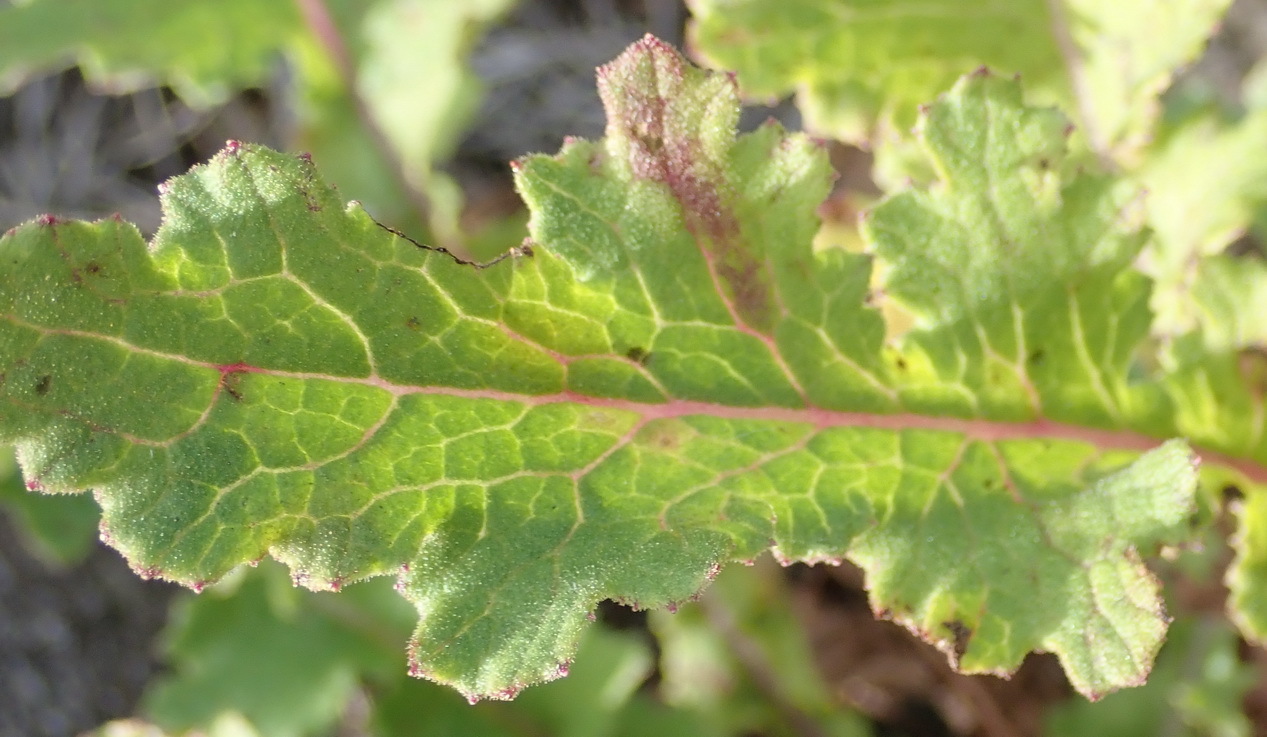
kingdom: Plantae
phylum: Tracheophyta
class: Magnoliopsida
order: Asterales
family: Asteraceae
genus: Senecio
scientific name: Senecio purpureus
